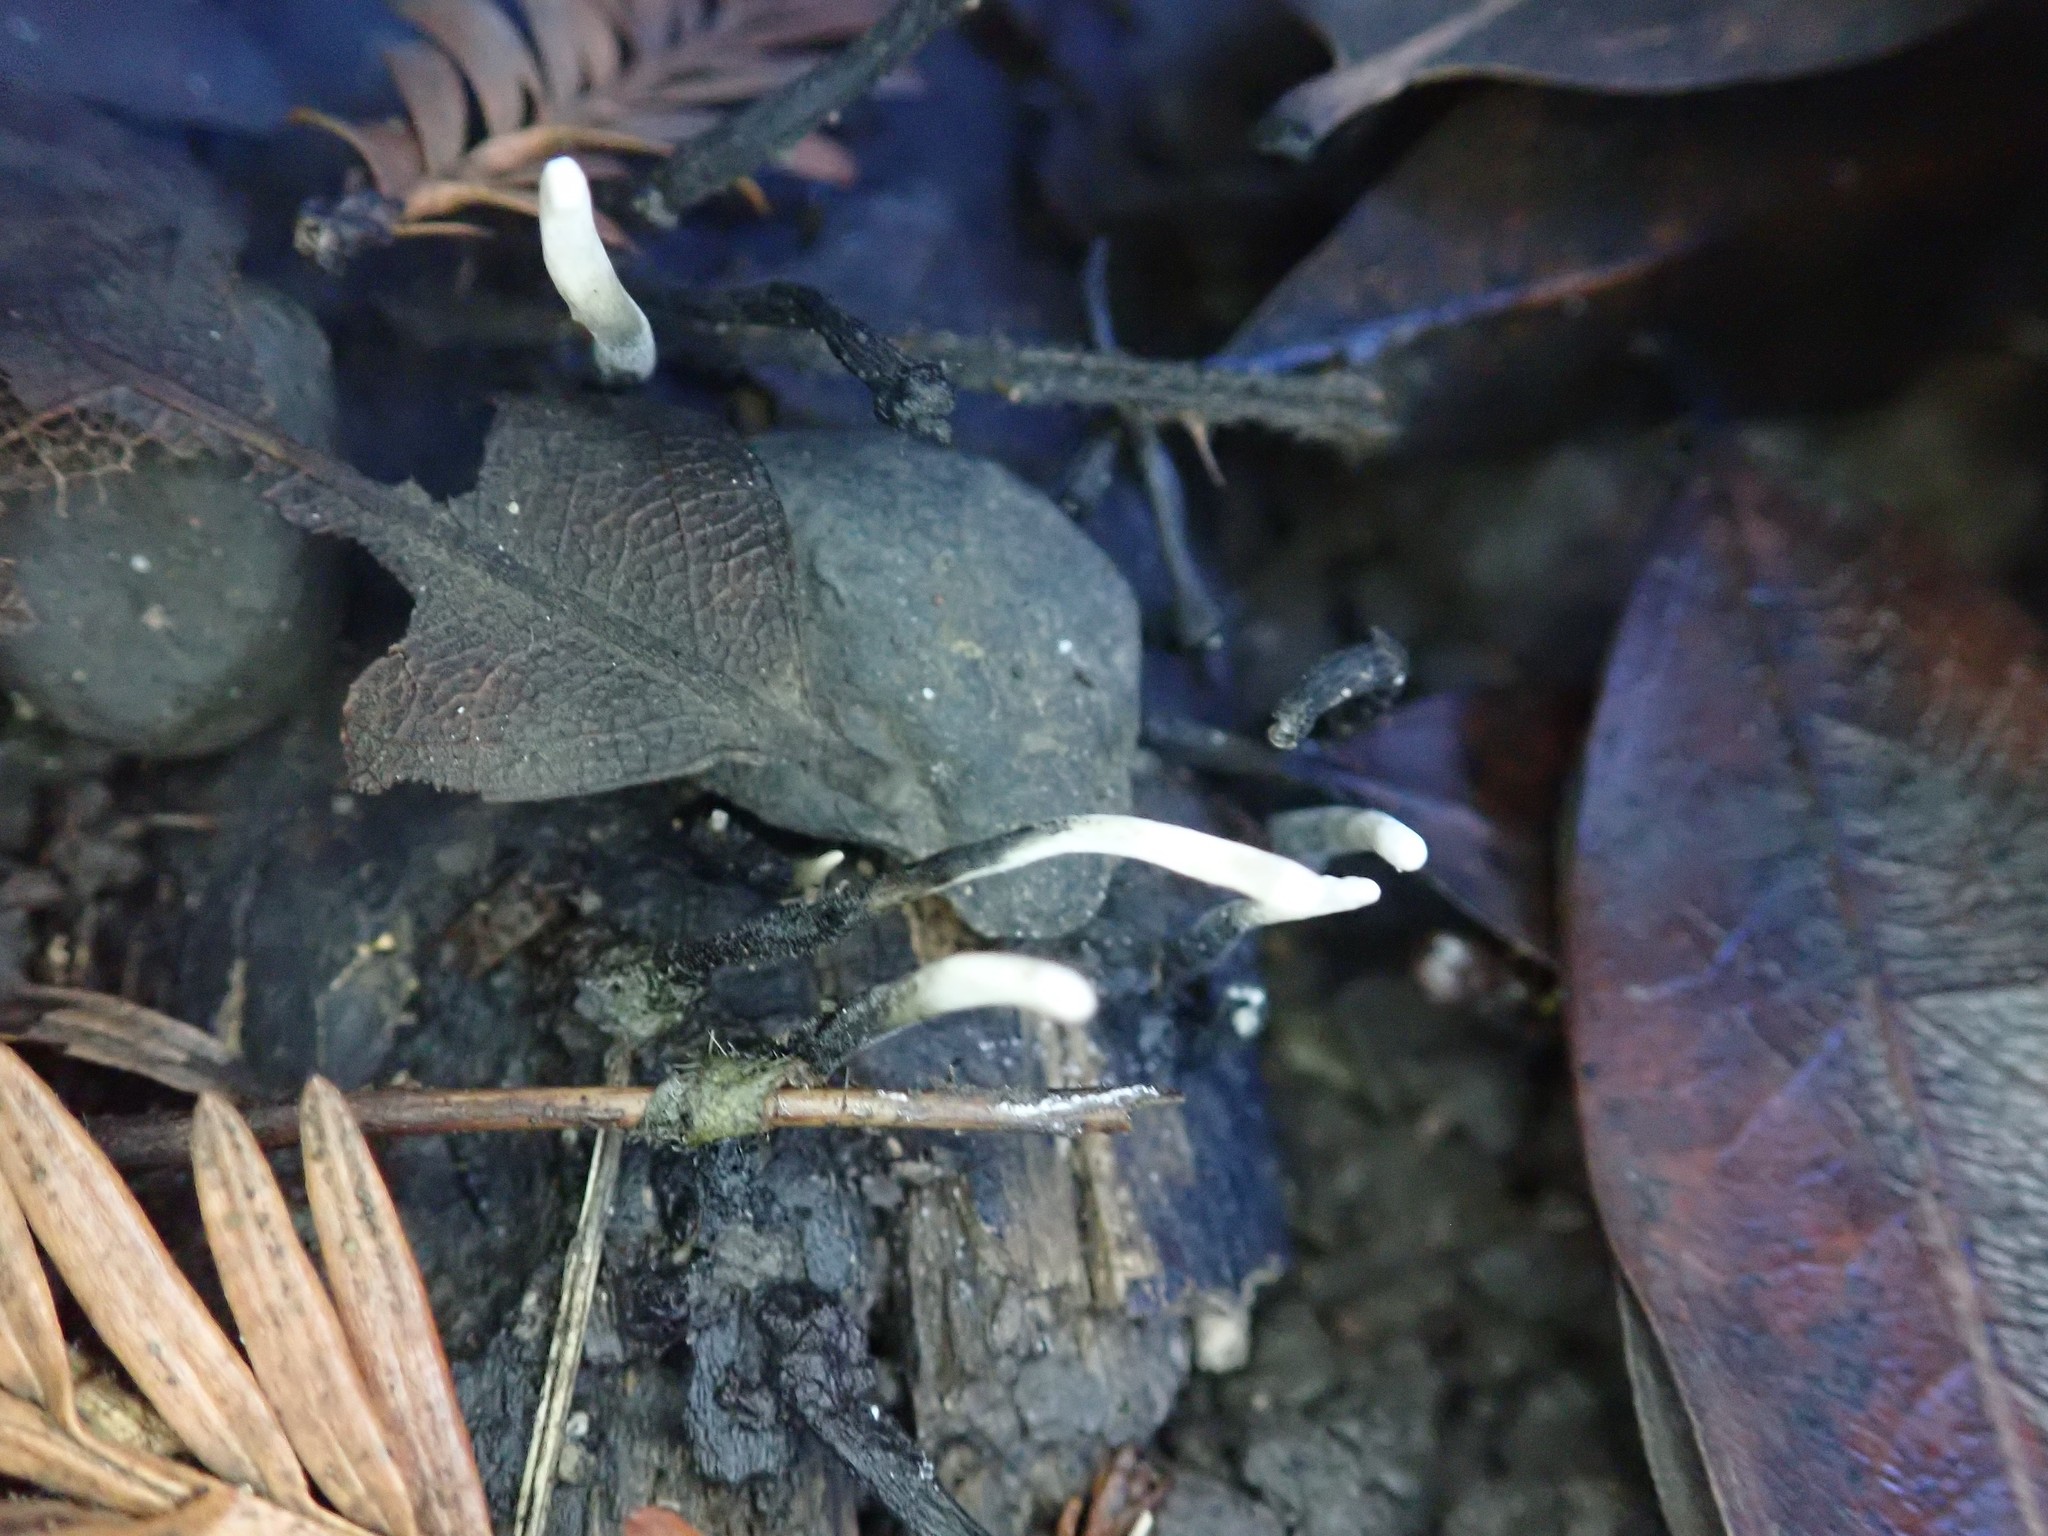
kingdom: Fungi
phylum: Ascomycota
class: Sordariomycetes
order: Xylariales
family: Xylariaceae
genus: Xylaria
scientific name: Xylaria hypoxylon
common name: Candle-snuff fungus
